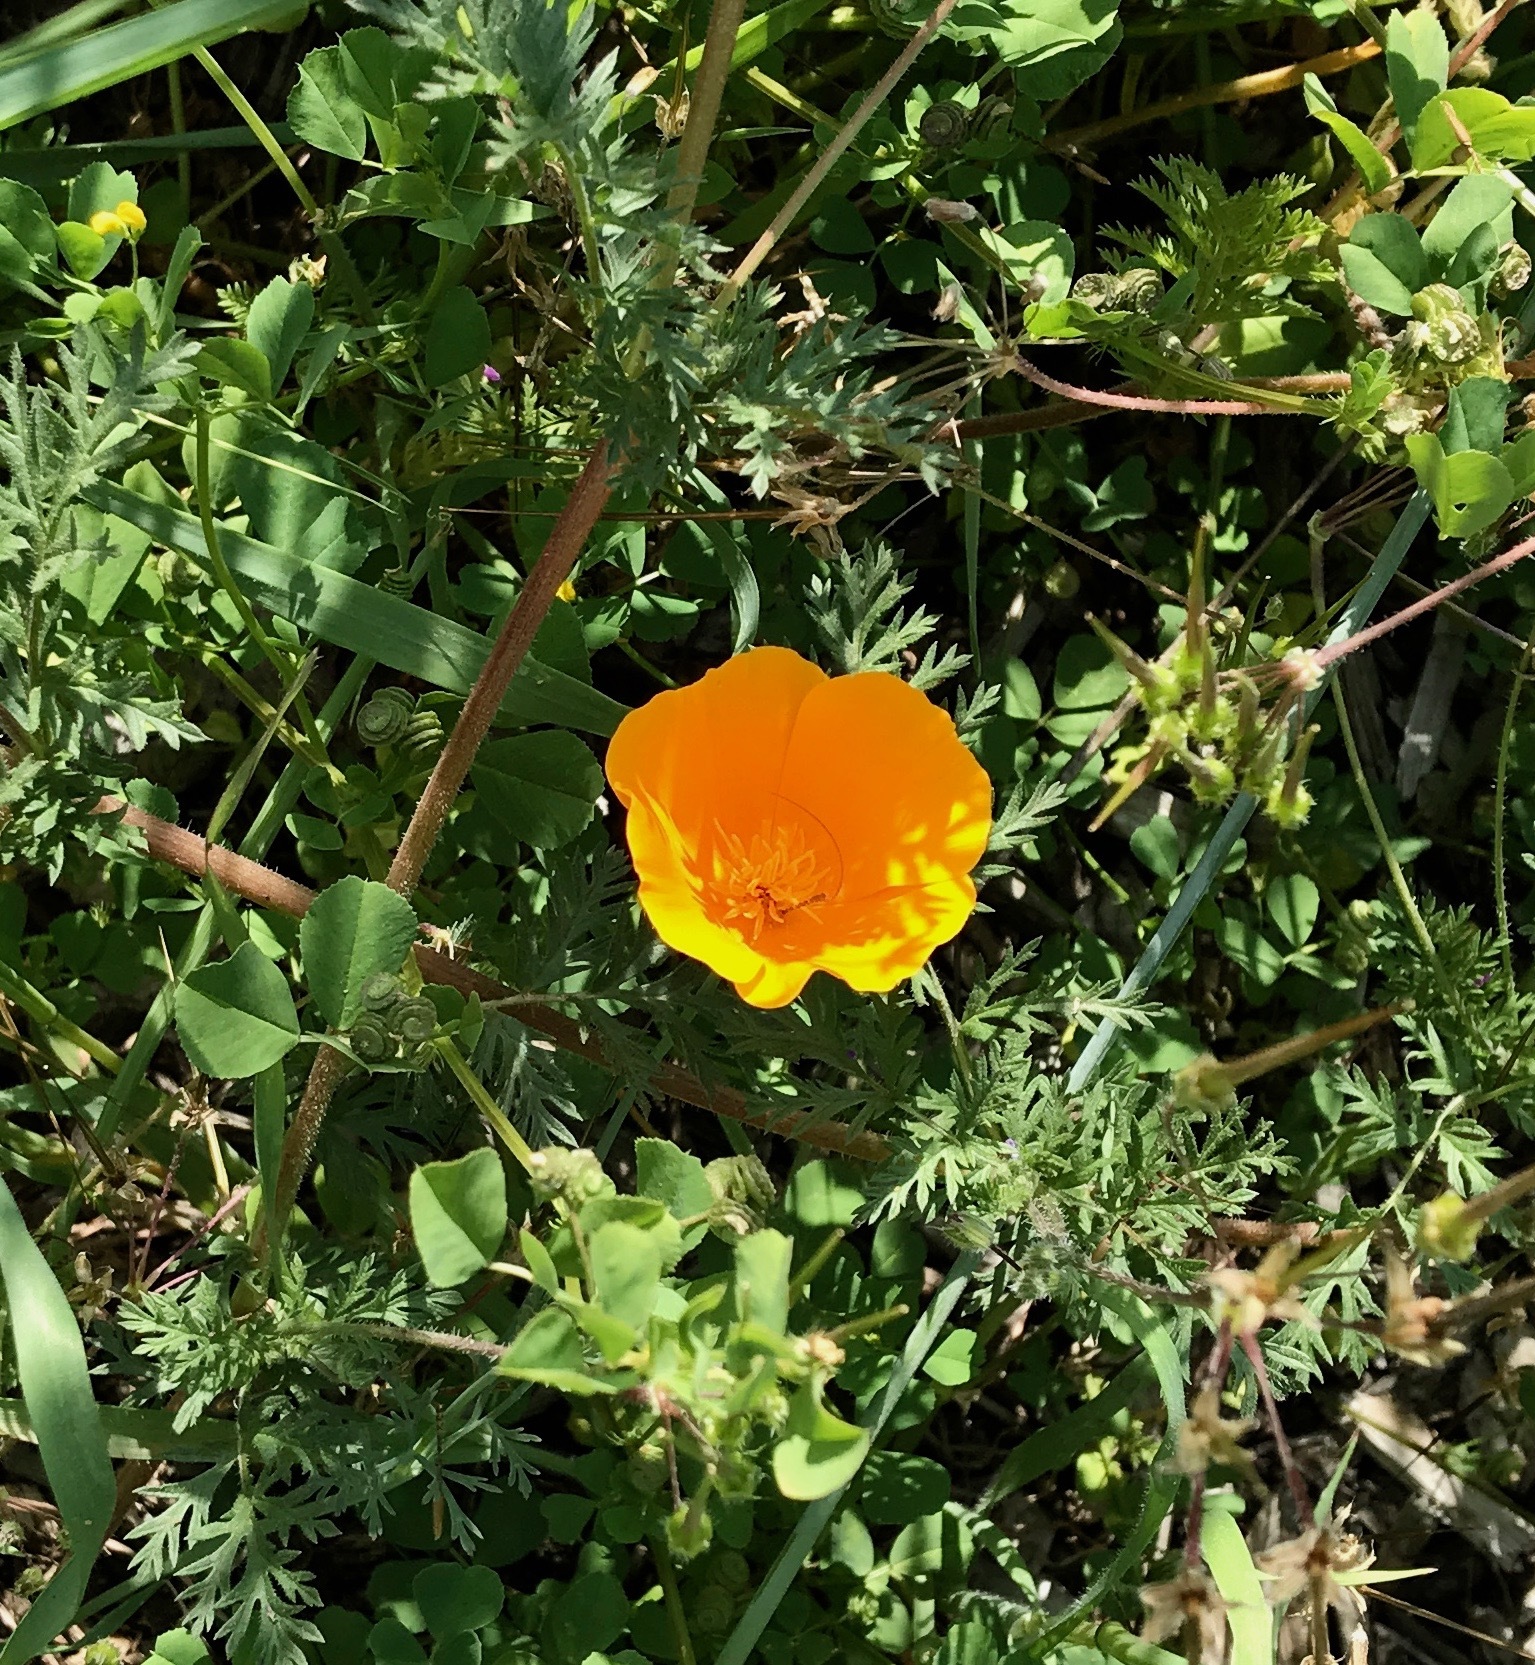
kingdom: Plantae
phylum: Tracheophyta
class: Magnoliopsida
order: Ranunculales
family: Papaveraceae
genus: Eschscholzia
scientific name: Eschscholzia californica
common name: California poppy
